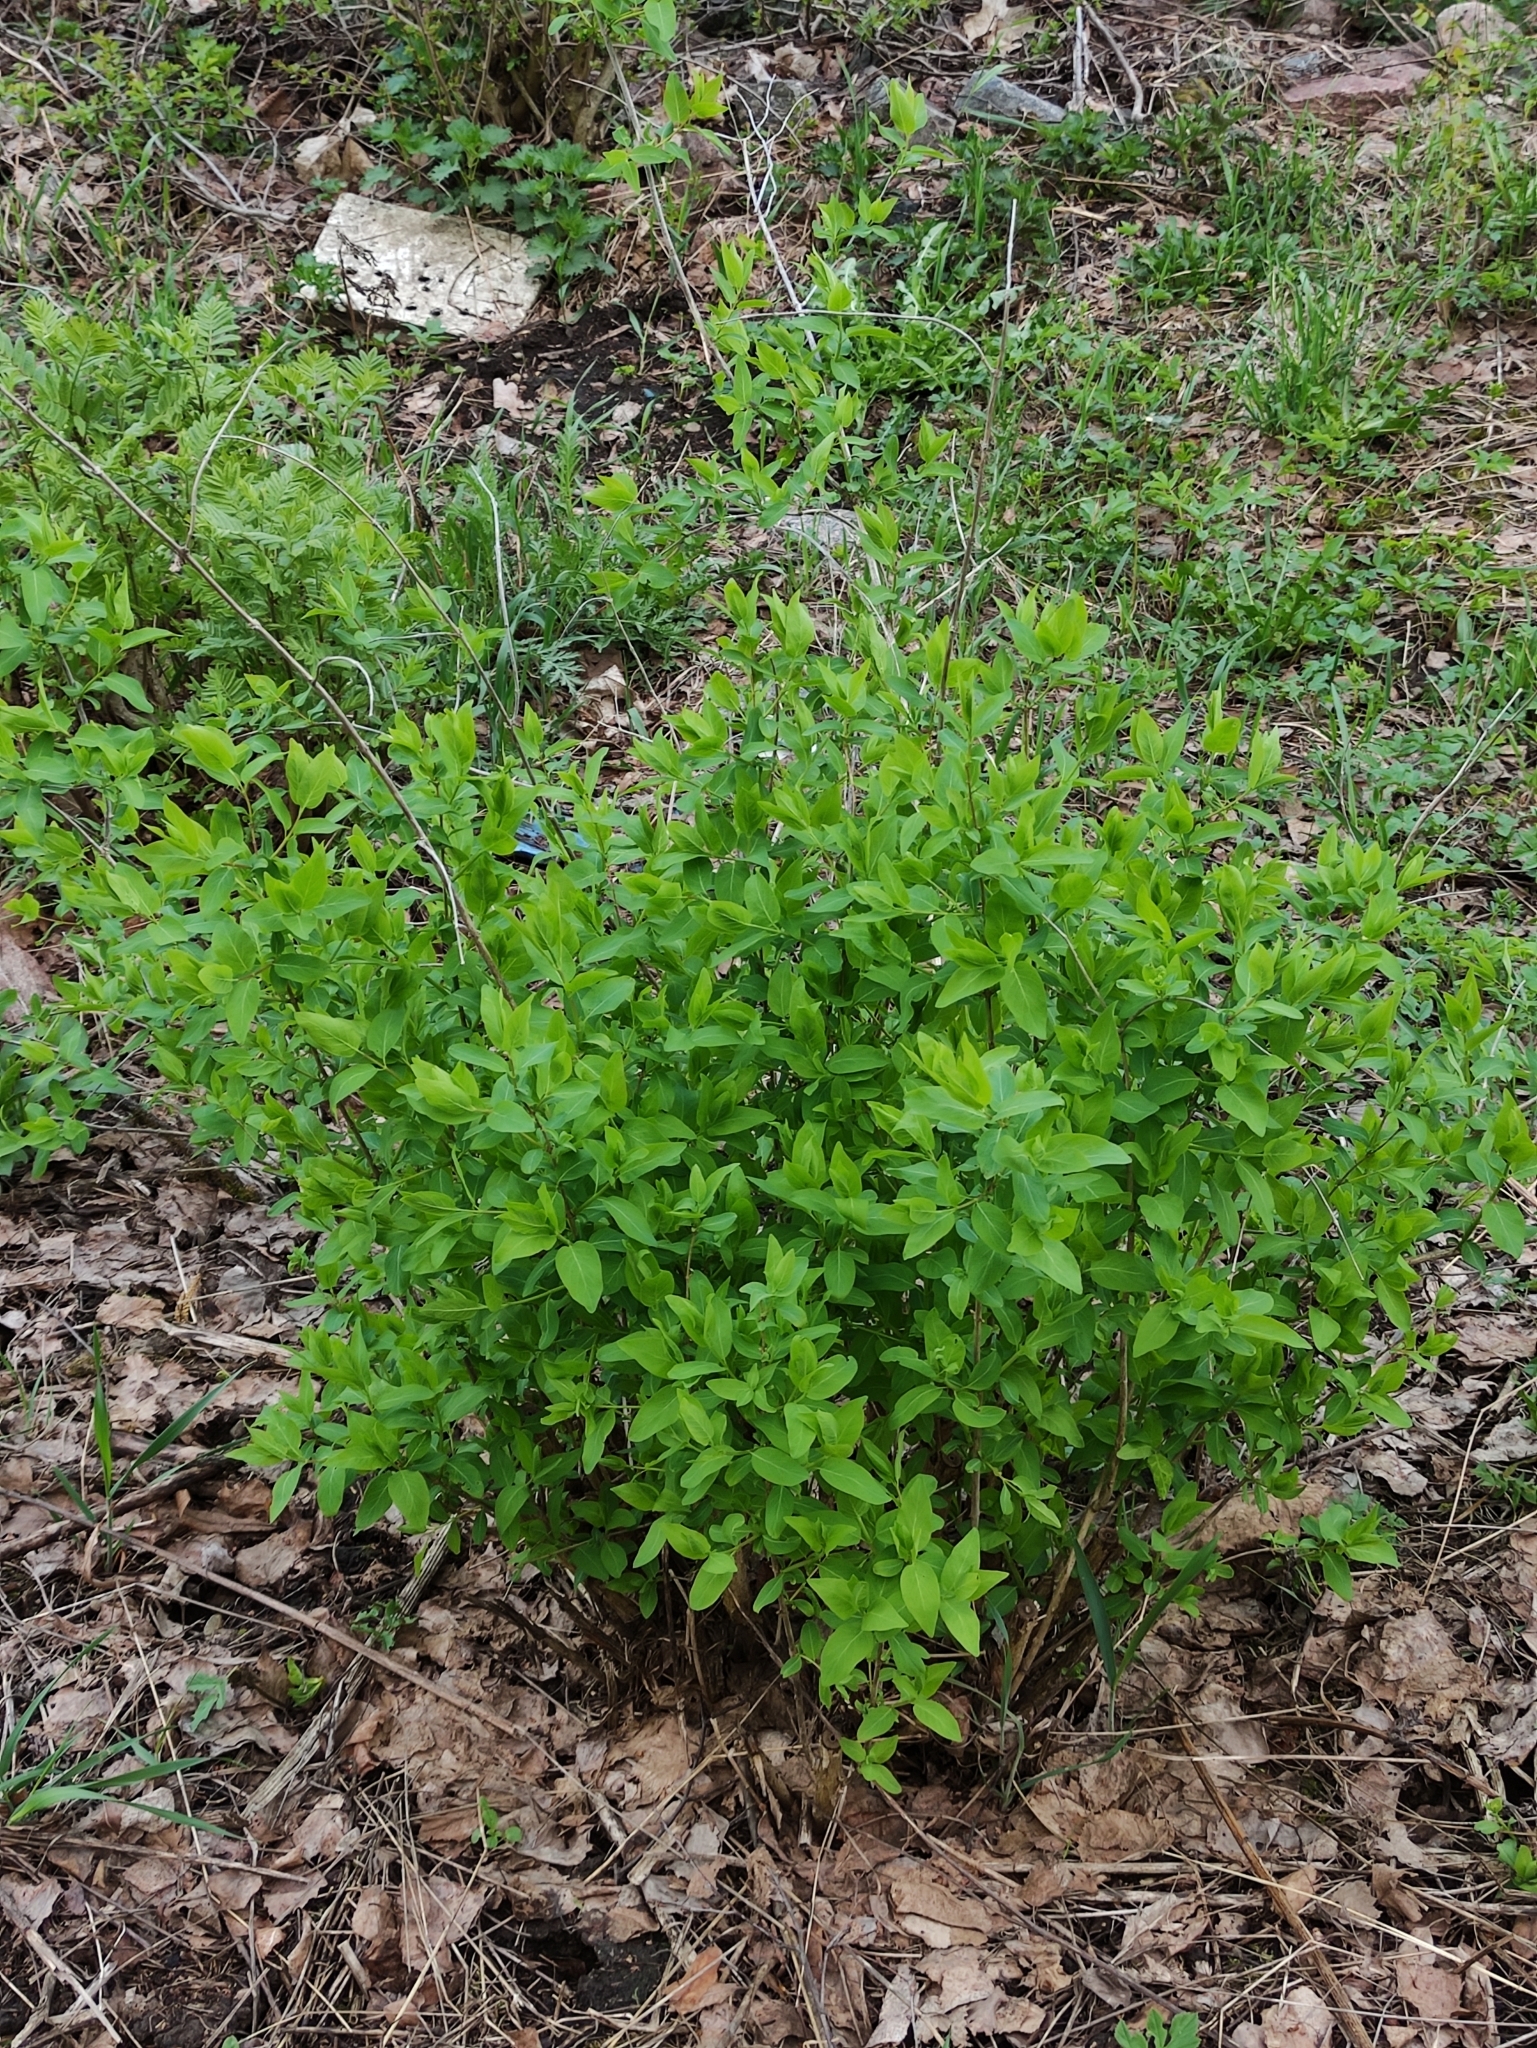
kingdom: Plantae
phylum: Tracheophyta
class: Magnoliopsida
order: Dipsacales
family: Caprifoliaceae
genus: Lonicera
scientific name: Lonicera tatarica
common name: Tatarian honeysuckle
